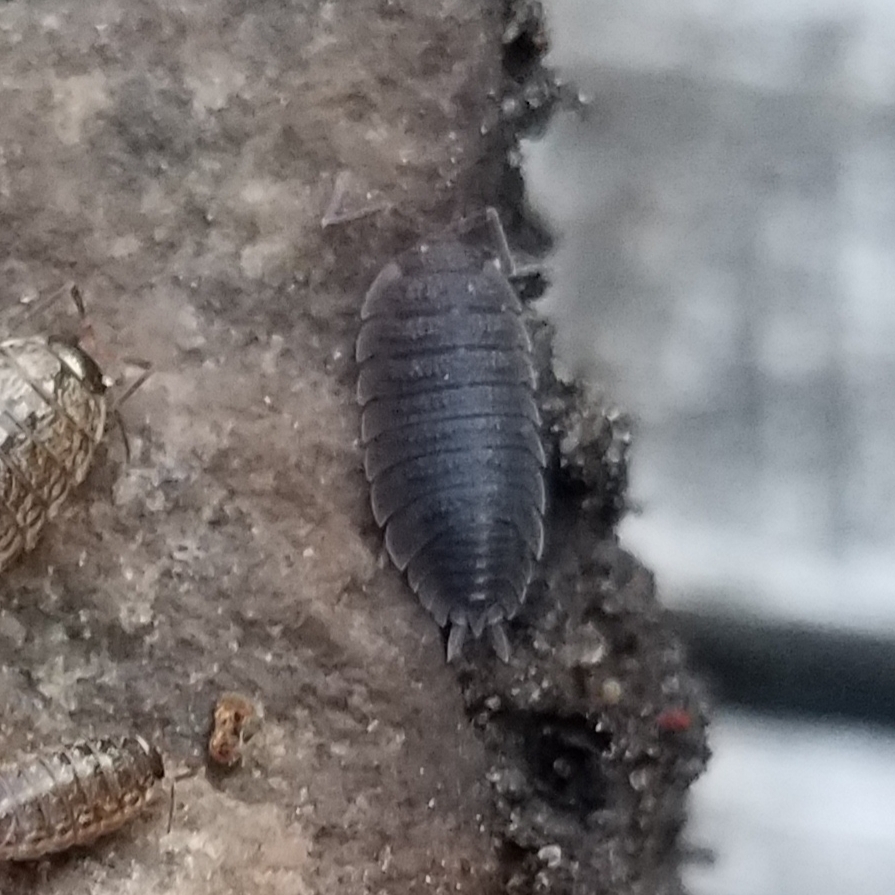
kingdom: Animalia
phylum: Arthropoda
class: Malacostraca
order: Isopoda
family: Porcellionidae
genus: Porcellio
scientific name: Porcellio scaber
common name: Common rough woodlouse
